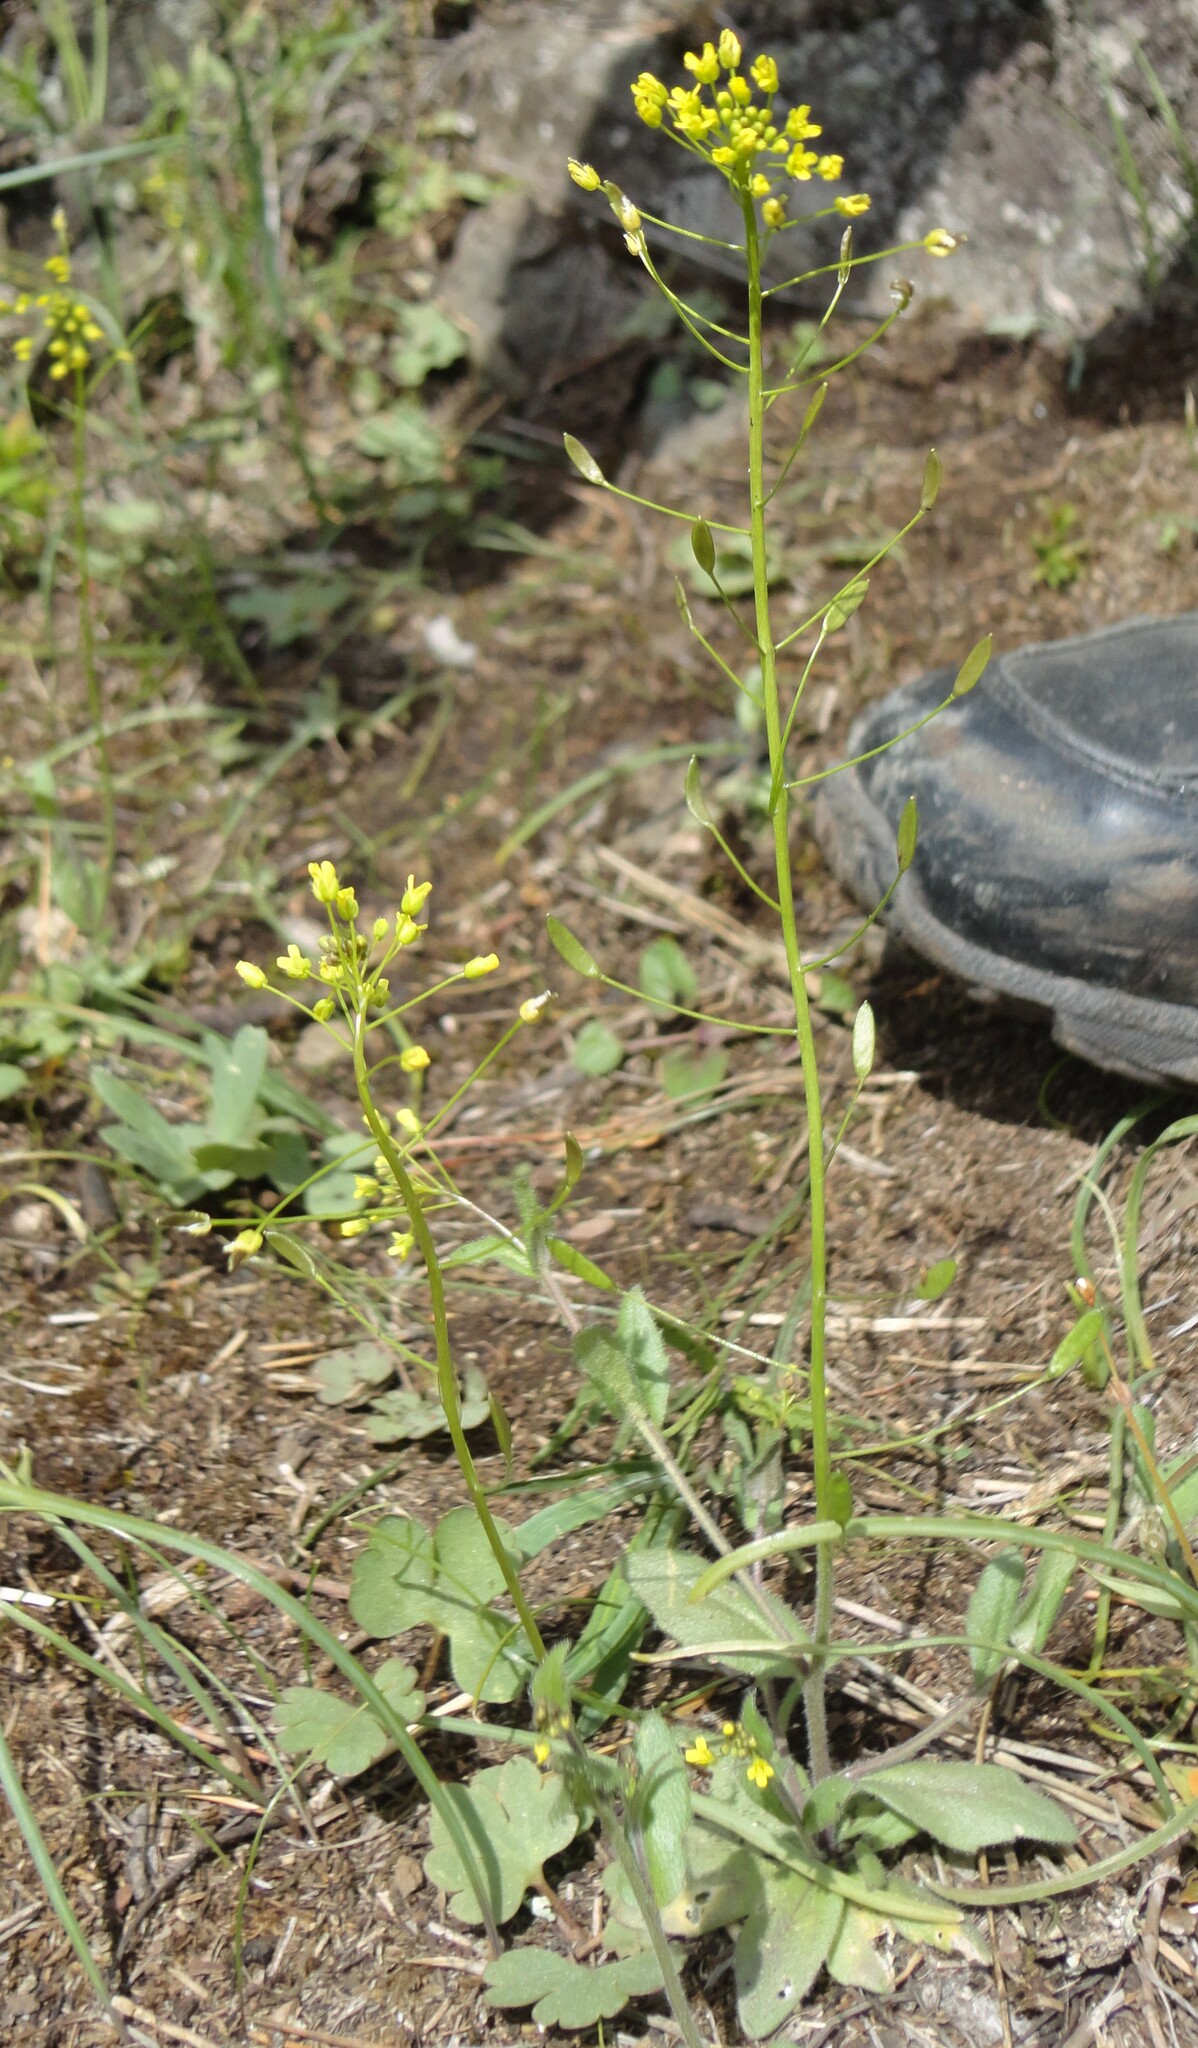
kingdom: Plantae
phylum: Tracheophyta
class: Magnoliopsida
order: Brassicales
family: Brassicaceae
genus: Draba
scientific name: Draba nemorosa
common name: Wood whitlow-grass
